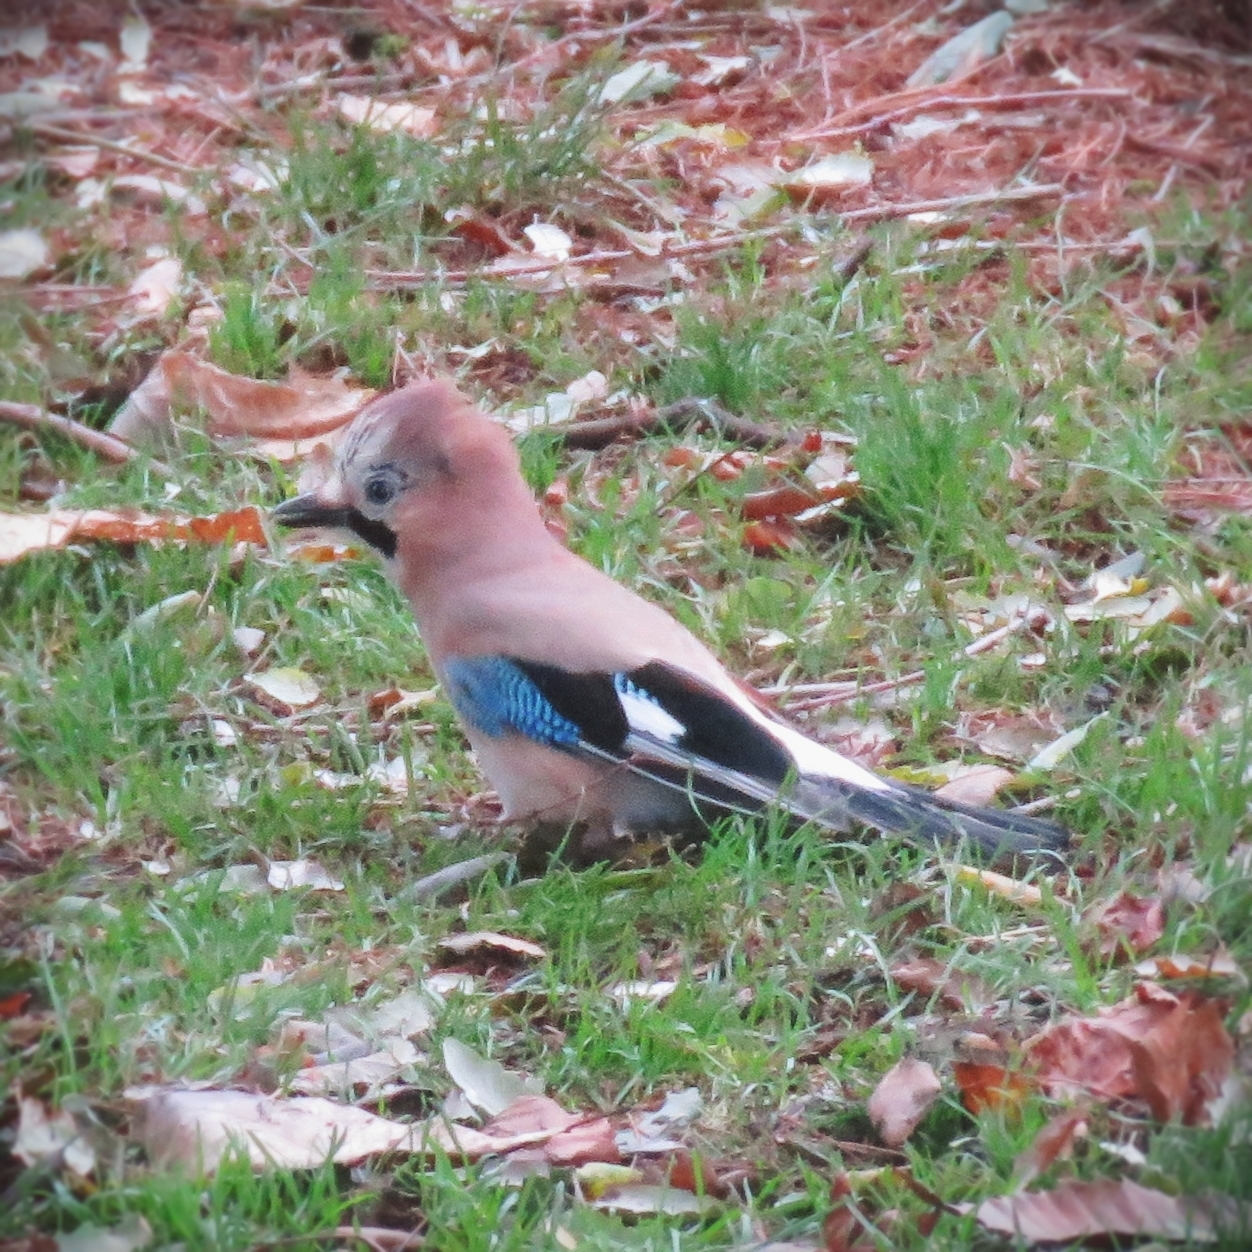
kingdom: Animalia
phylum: Chordata
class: Aves
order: Passeriformes
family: Corvidae
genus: Garrulus
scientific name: Garrulus glandarius
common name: Eurasian jay
